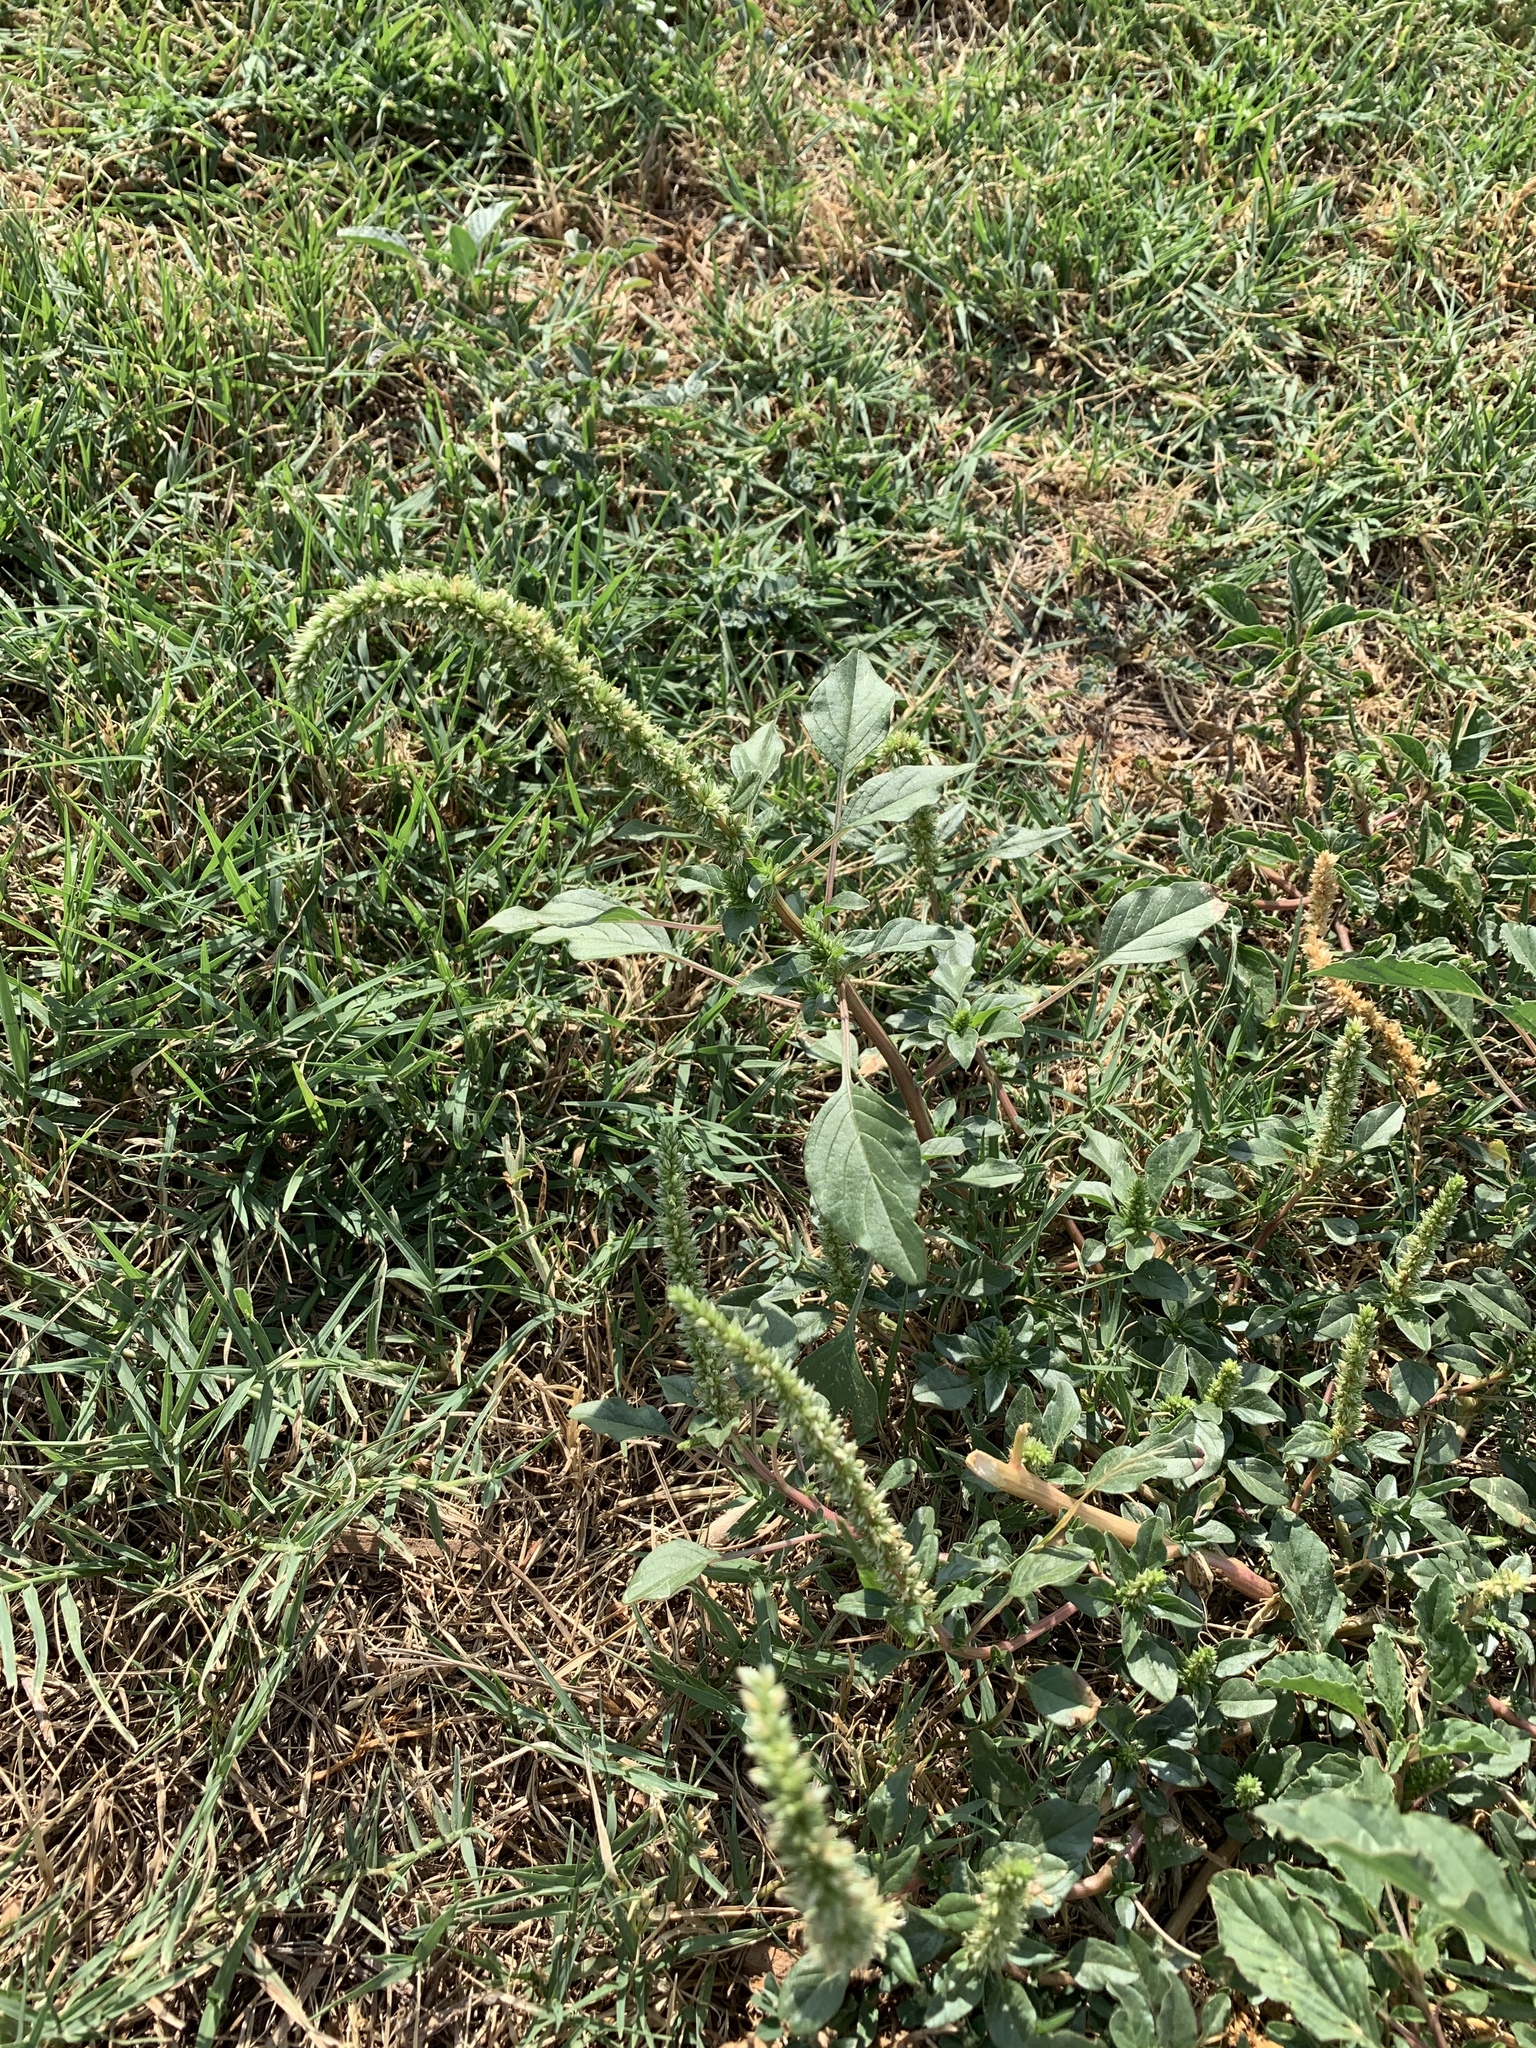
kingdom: Plantae
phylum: Tracheophyta
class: Magnoliopsida
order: Caryophyllales
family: Amaranthaceae
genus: Amaranthus
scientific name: Amaranthus palmeri
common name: Dioecious amaranth
